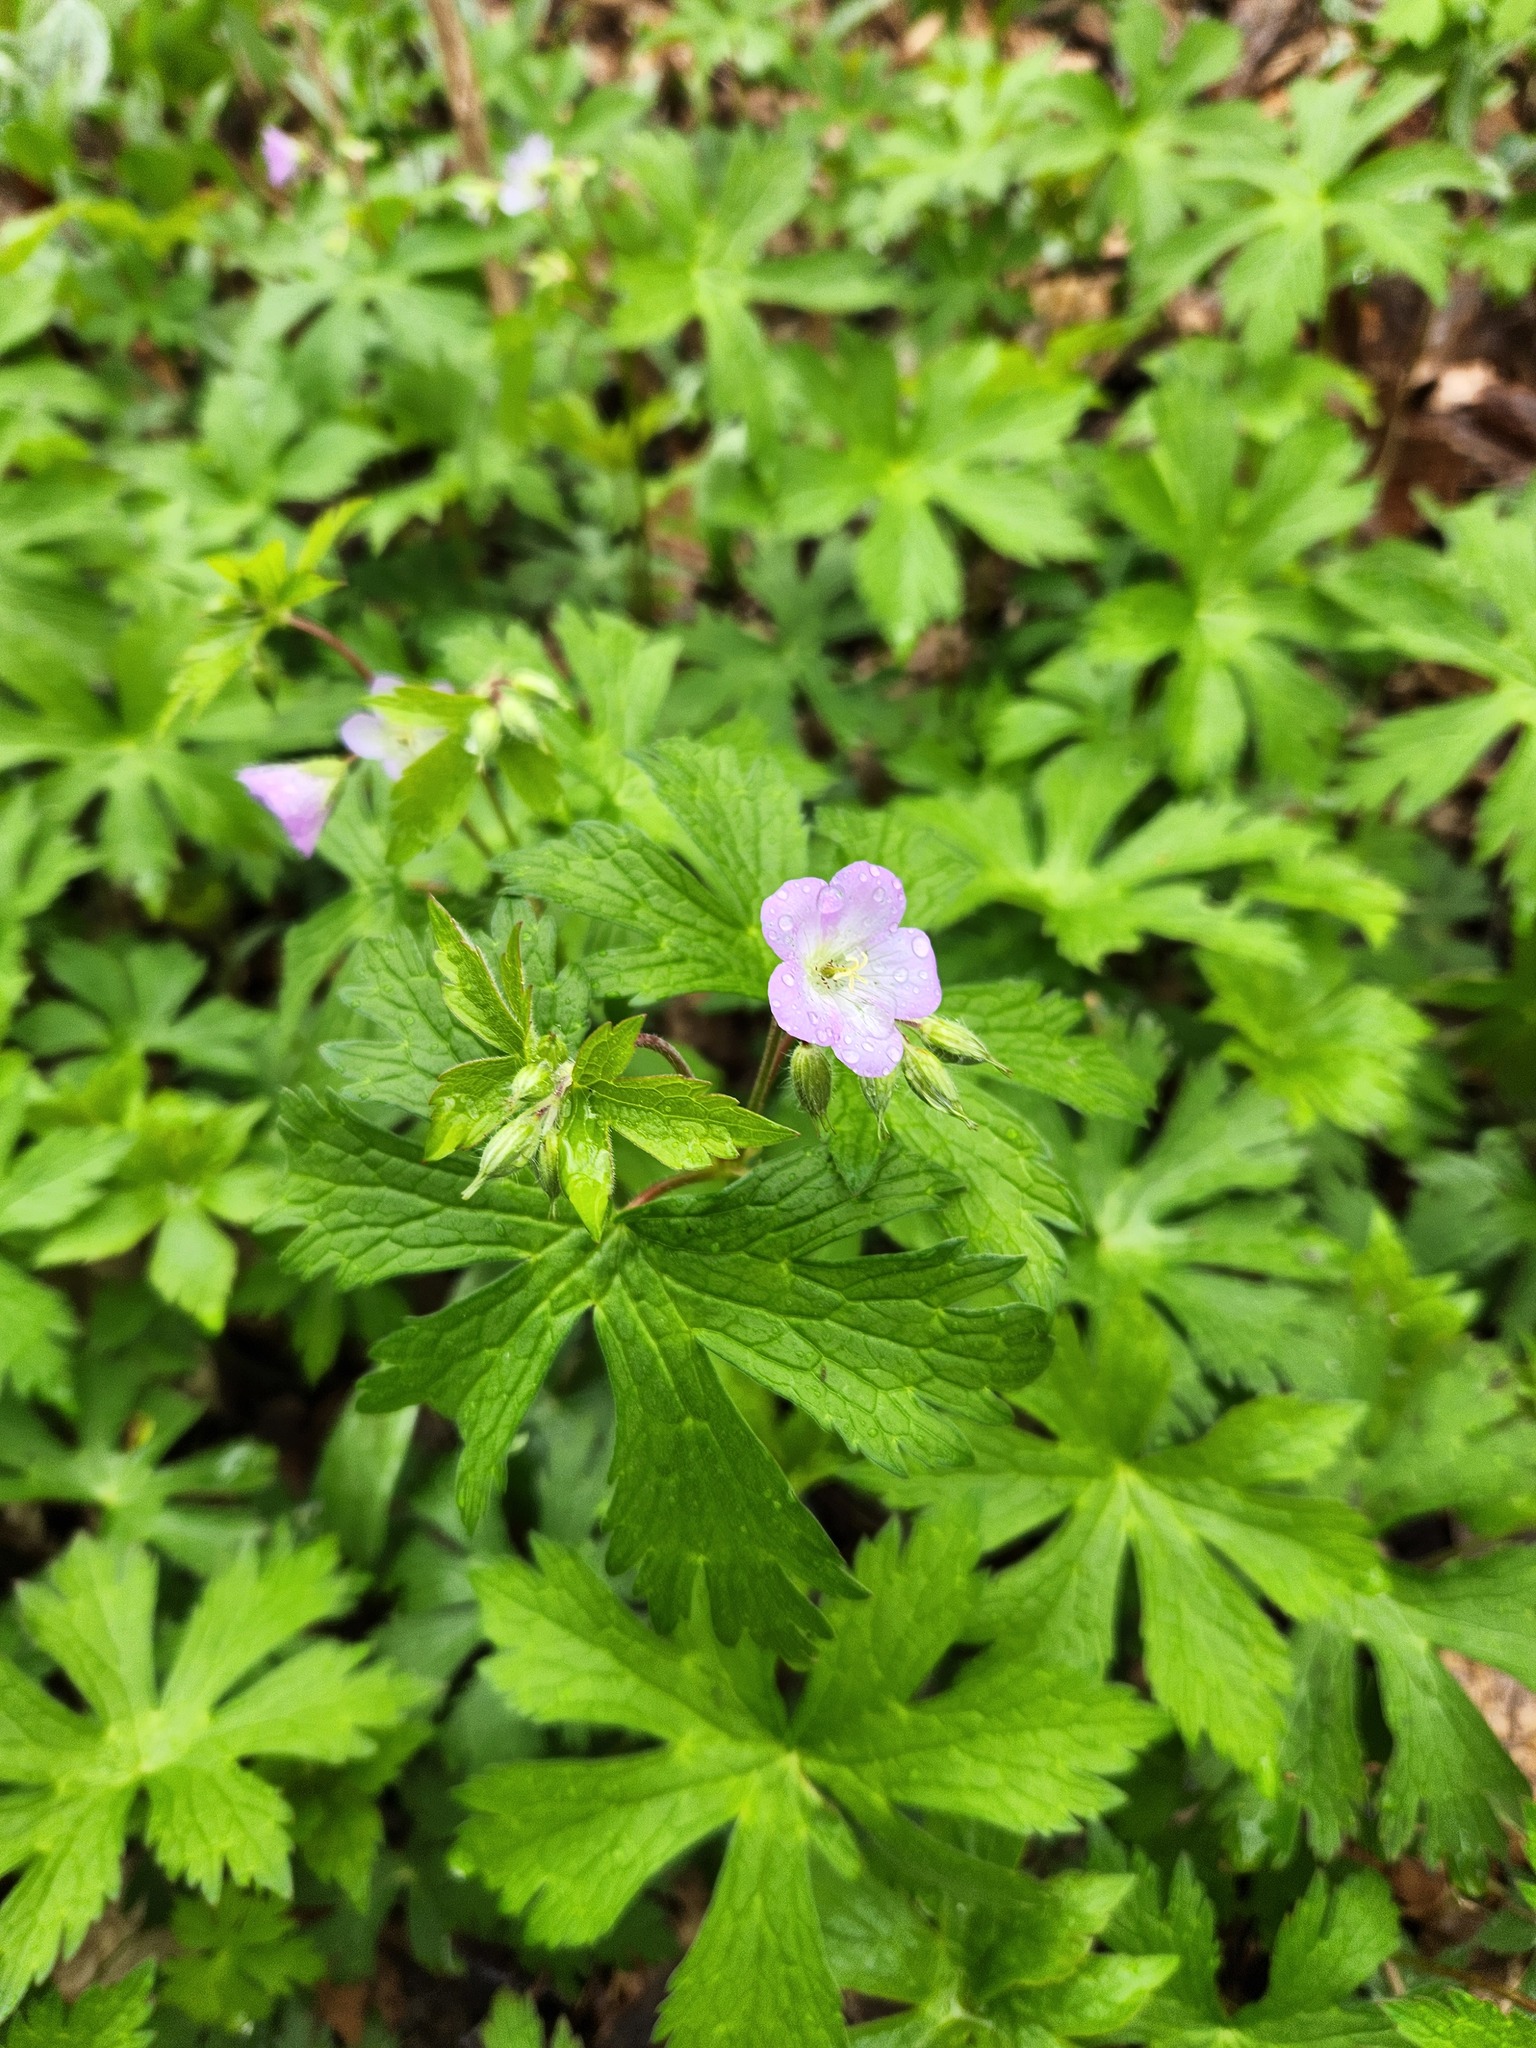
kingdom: Plantae
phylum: Tracheophyta
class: Magnoliopsida
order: Geraniales
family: Geraniaceae
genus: Geranium
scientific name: Geranium maculatum
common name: Spotted geranium
